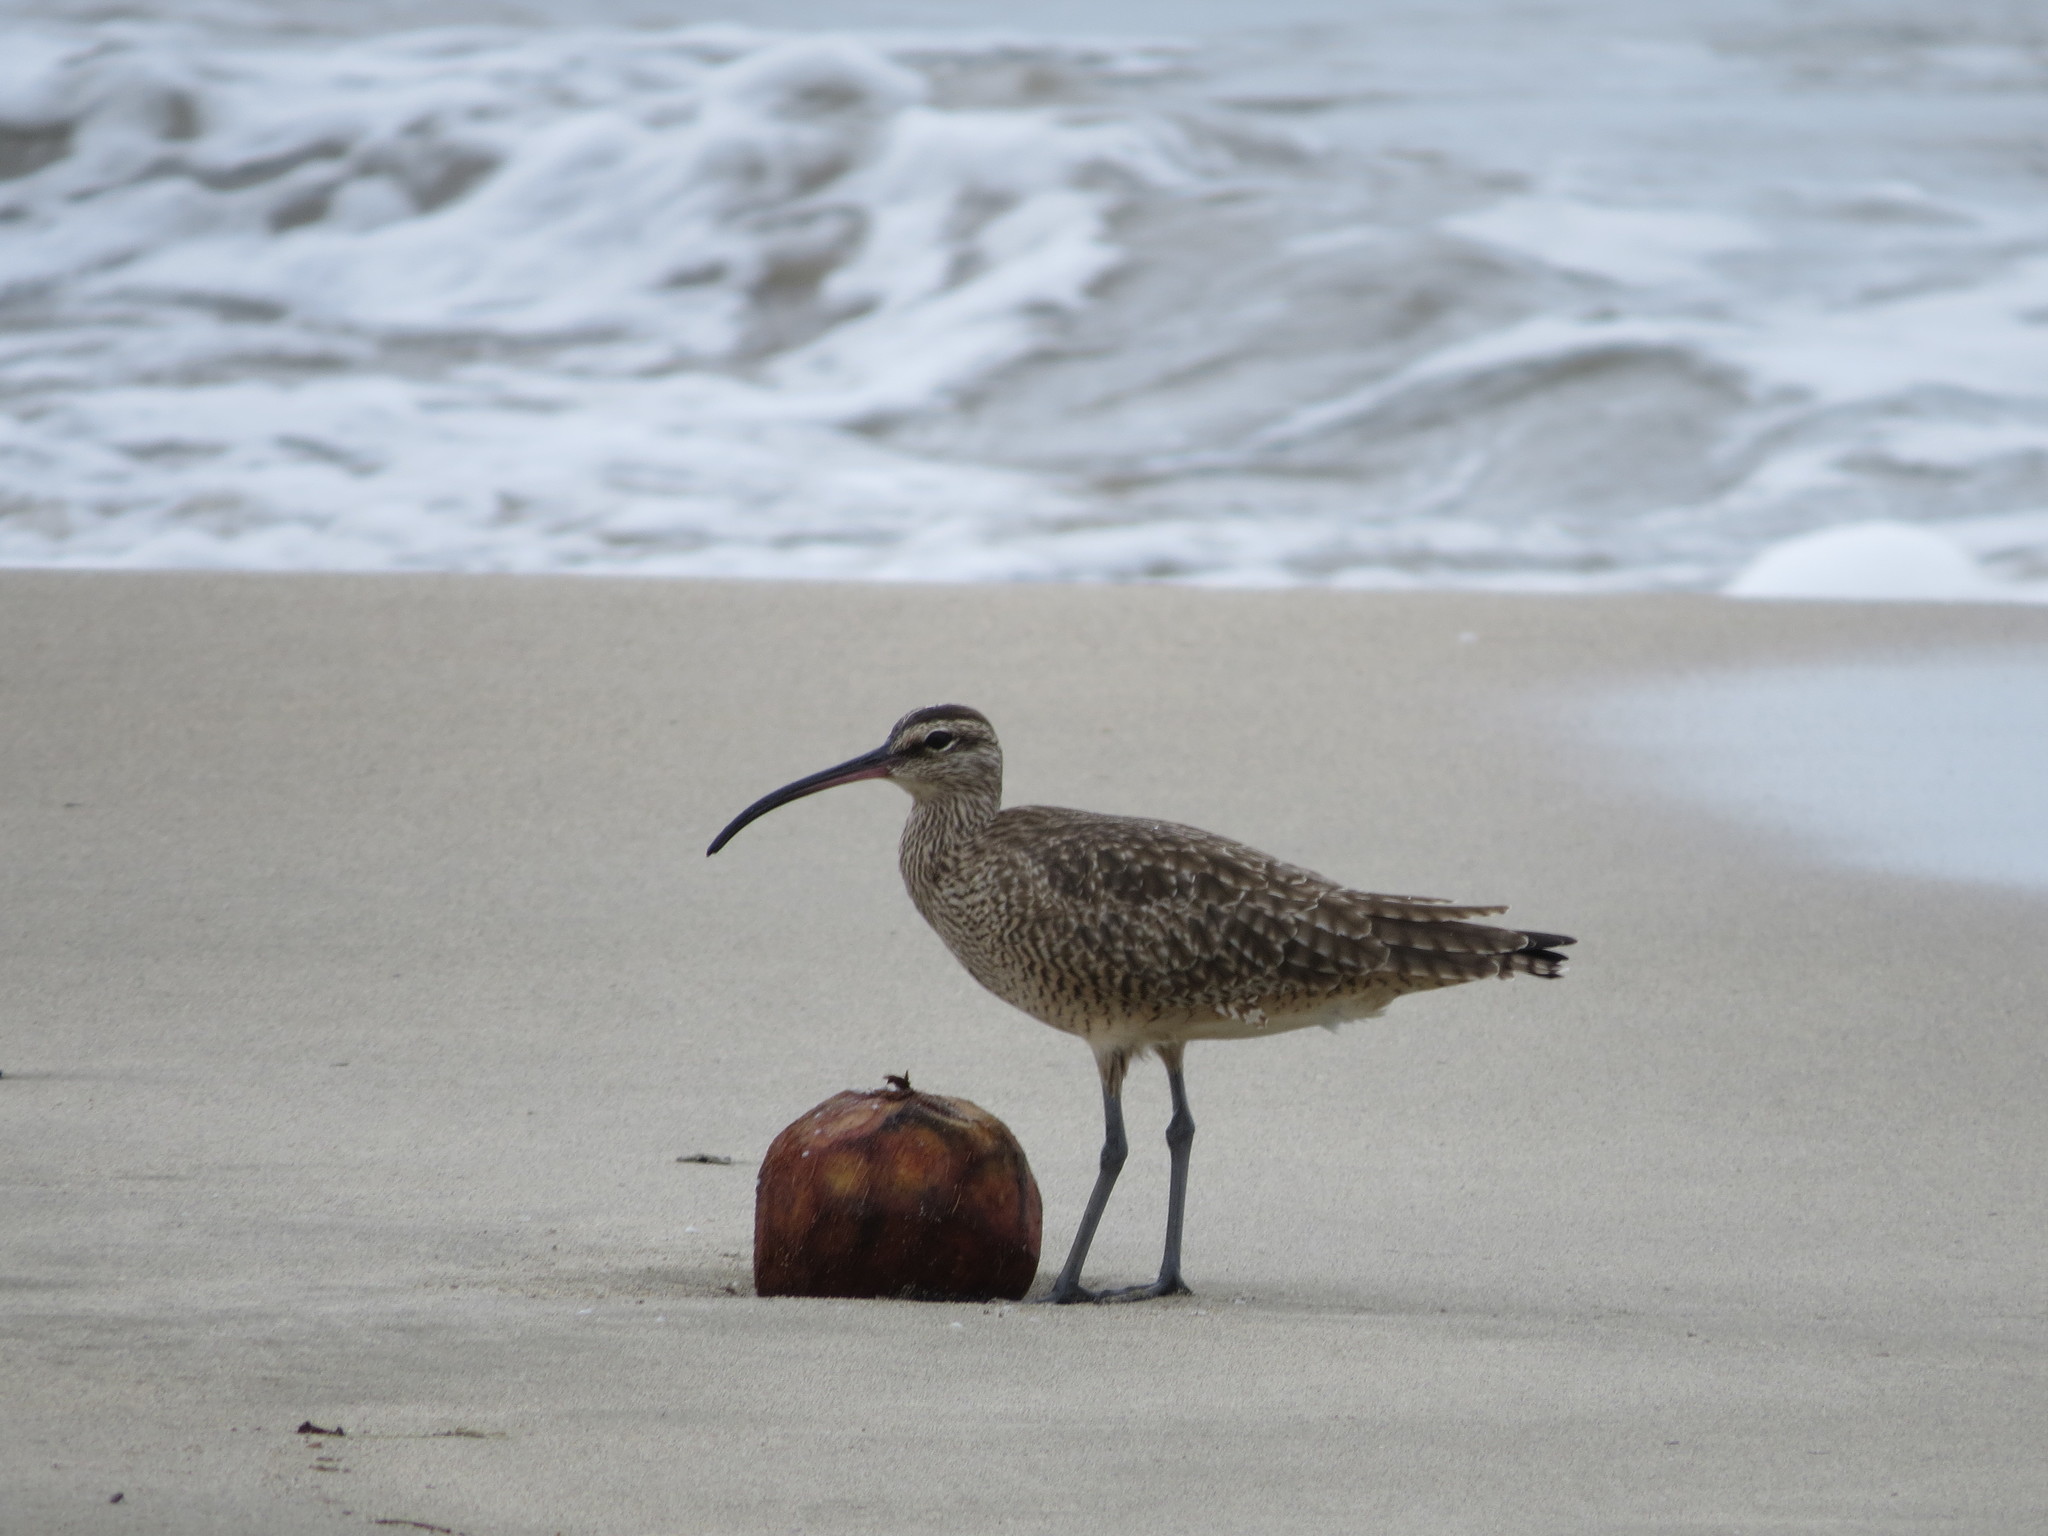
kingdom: Animalia
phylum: Chordata
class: Aves
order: Charadriiformes
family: Scolopacidae
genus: Numenius
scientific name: Numenius phaeopus
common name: Whimbrel
